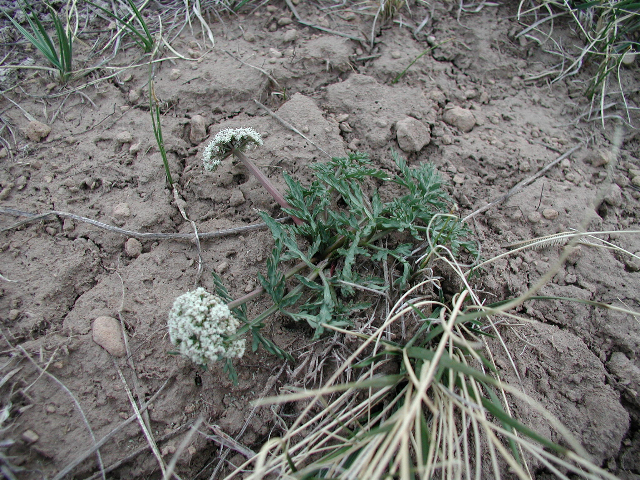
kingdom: Plantae
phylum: Tracheophyta
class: Magnoliopsida
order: Apiales
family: Apiaceae
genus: Lomatium
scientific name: Lomatium orientale
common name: Eastern cous
